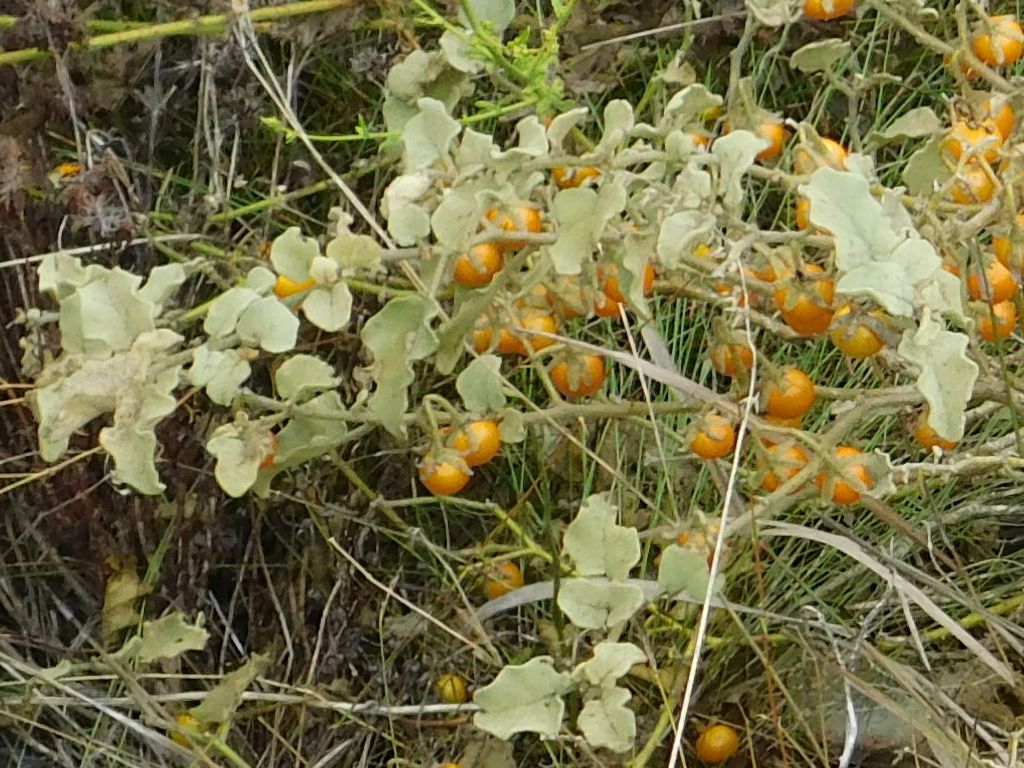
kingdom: Plantae
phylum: Tracheophyta
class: Magnoliopsida
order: Solanales
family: Solanaceae
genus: Solanum
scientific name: Solanum tomentosum
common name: Wild aubergine
